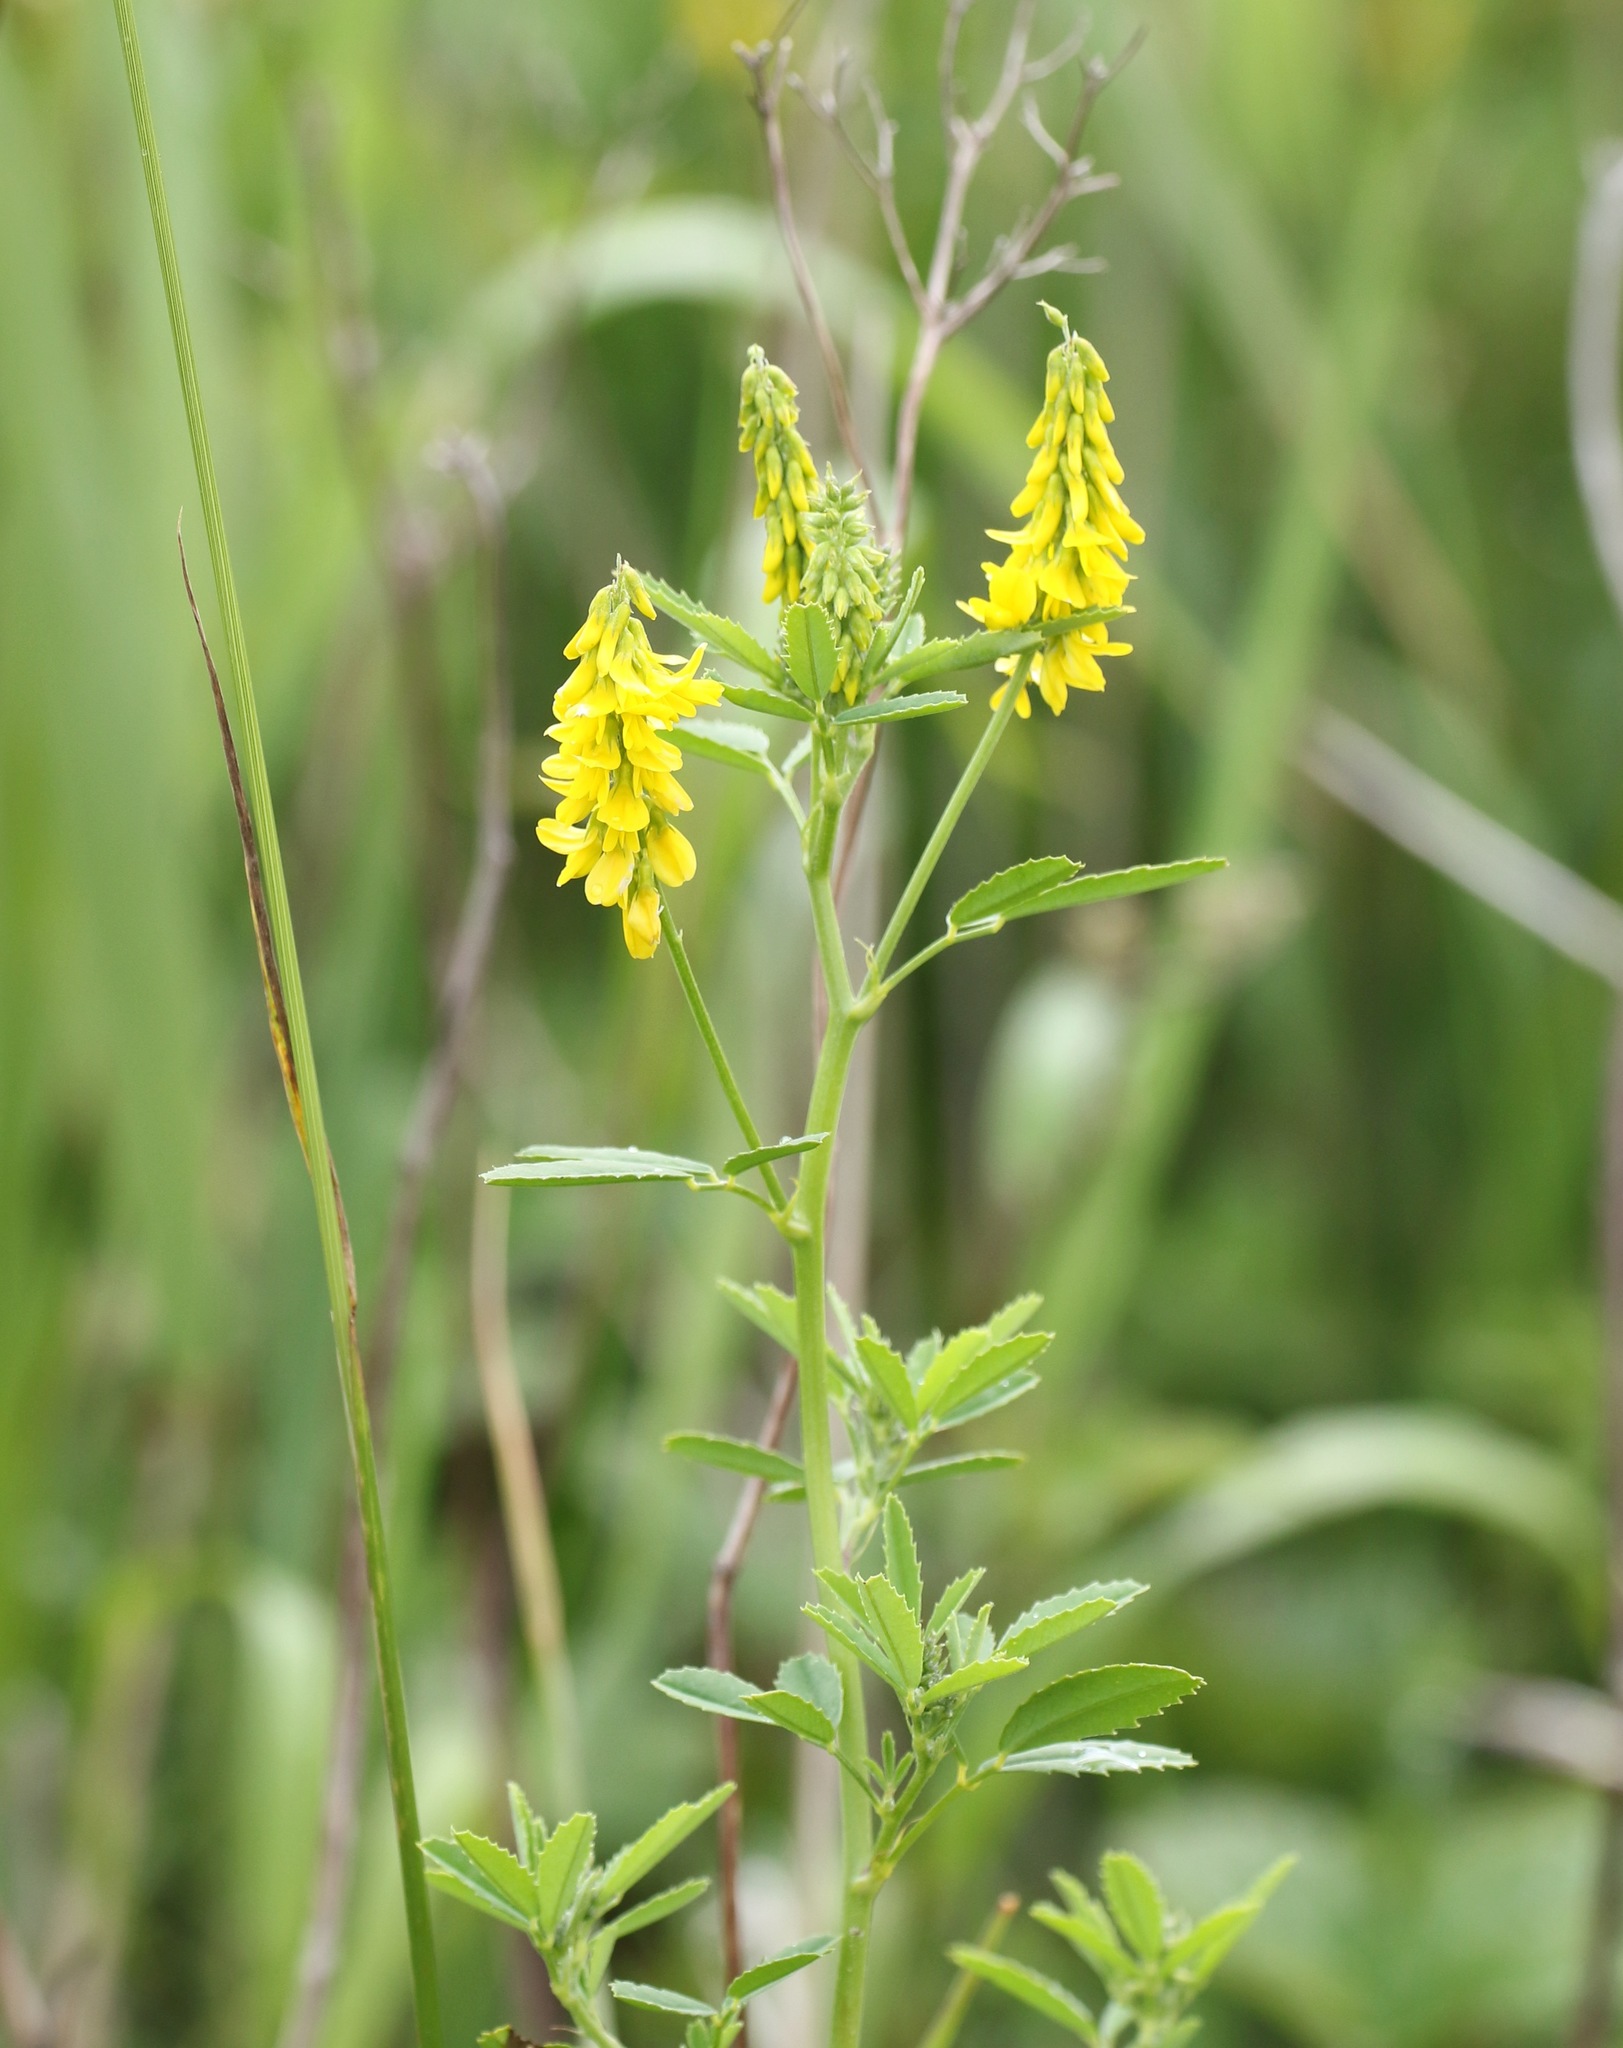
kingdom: Plantae
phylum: Tracheophyta
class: Magnoliopsida
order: Fabales
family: Fabaceae
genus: Melilotus
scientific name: Melilotus officinalis
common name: Sweetclover
